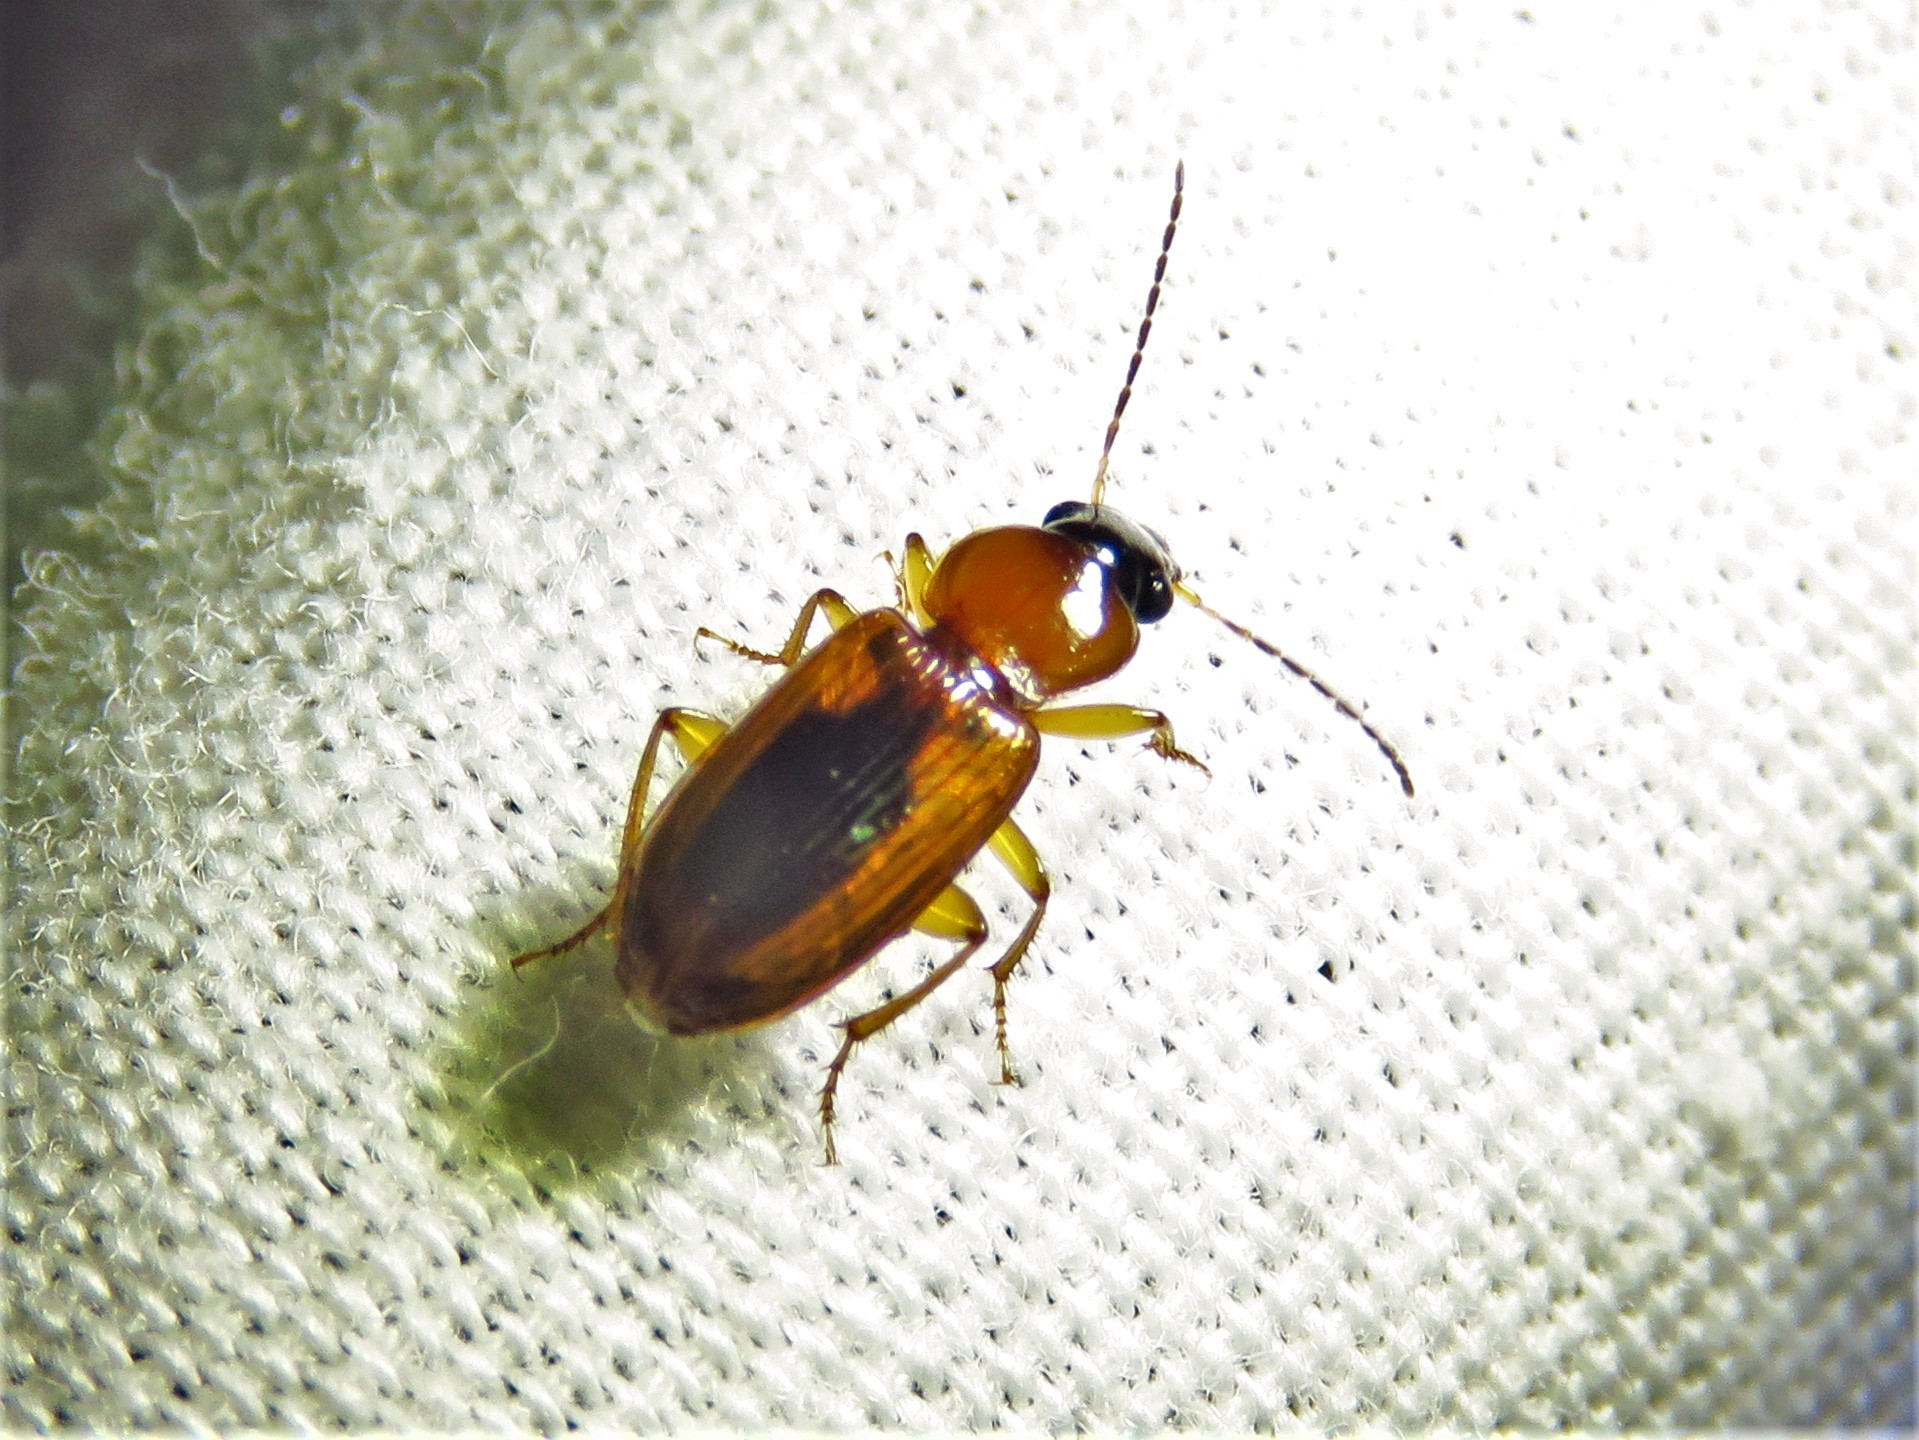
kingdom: Animalia
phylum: Arthropoda
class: Insecta
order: Coleoptera
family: Carabidae
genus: Stenolophus
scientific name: Stenolophus dissimilis
